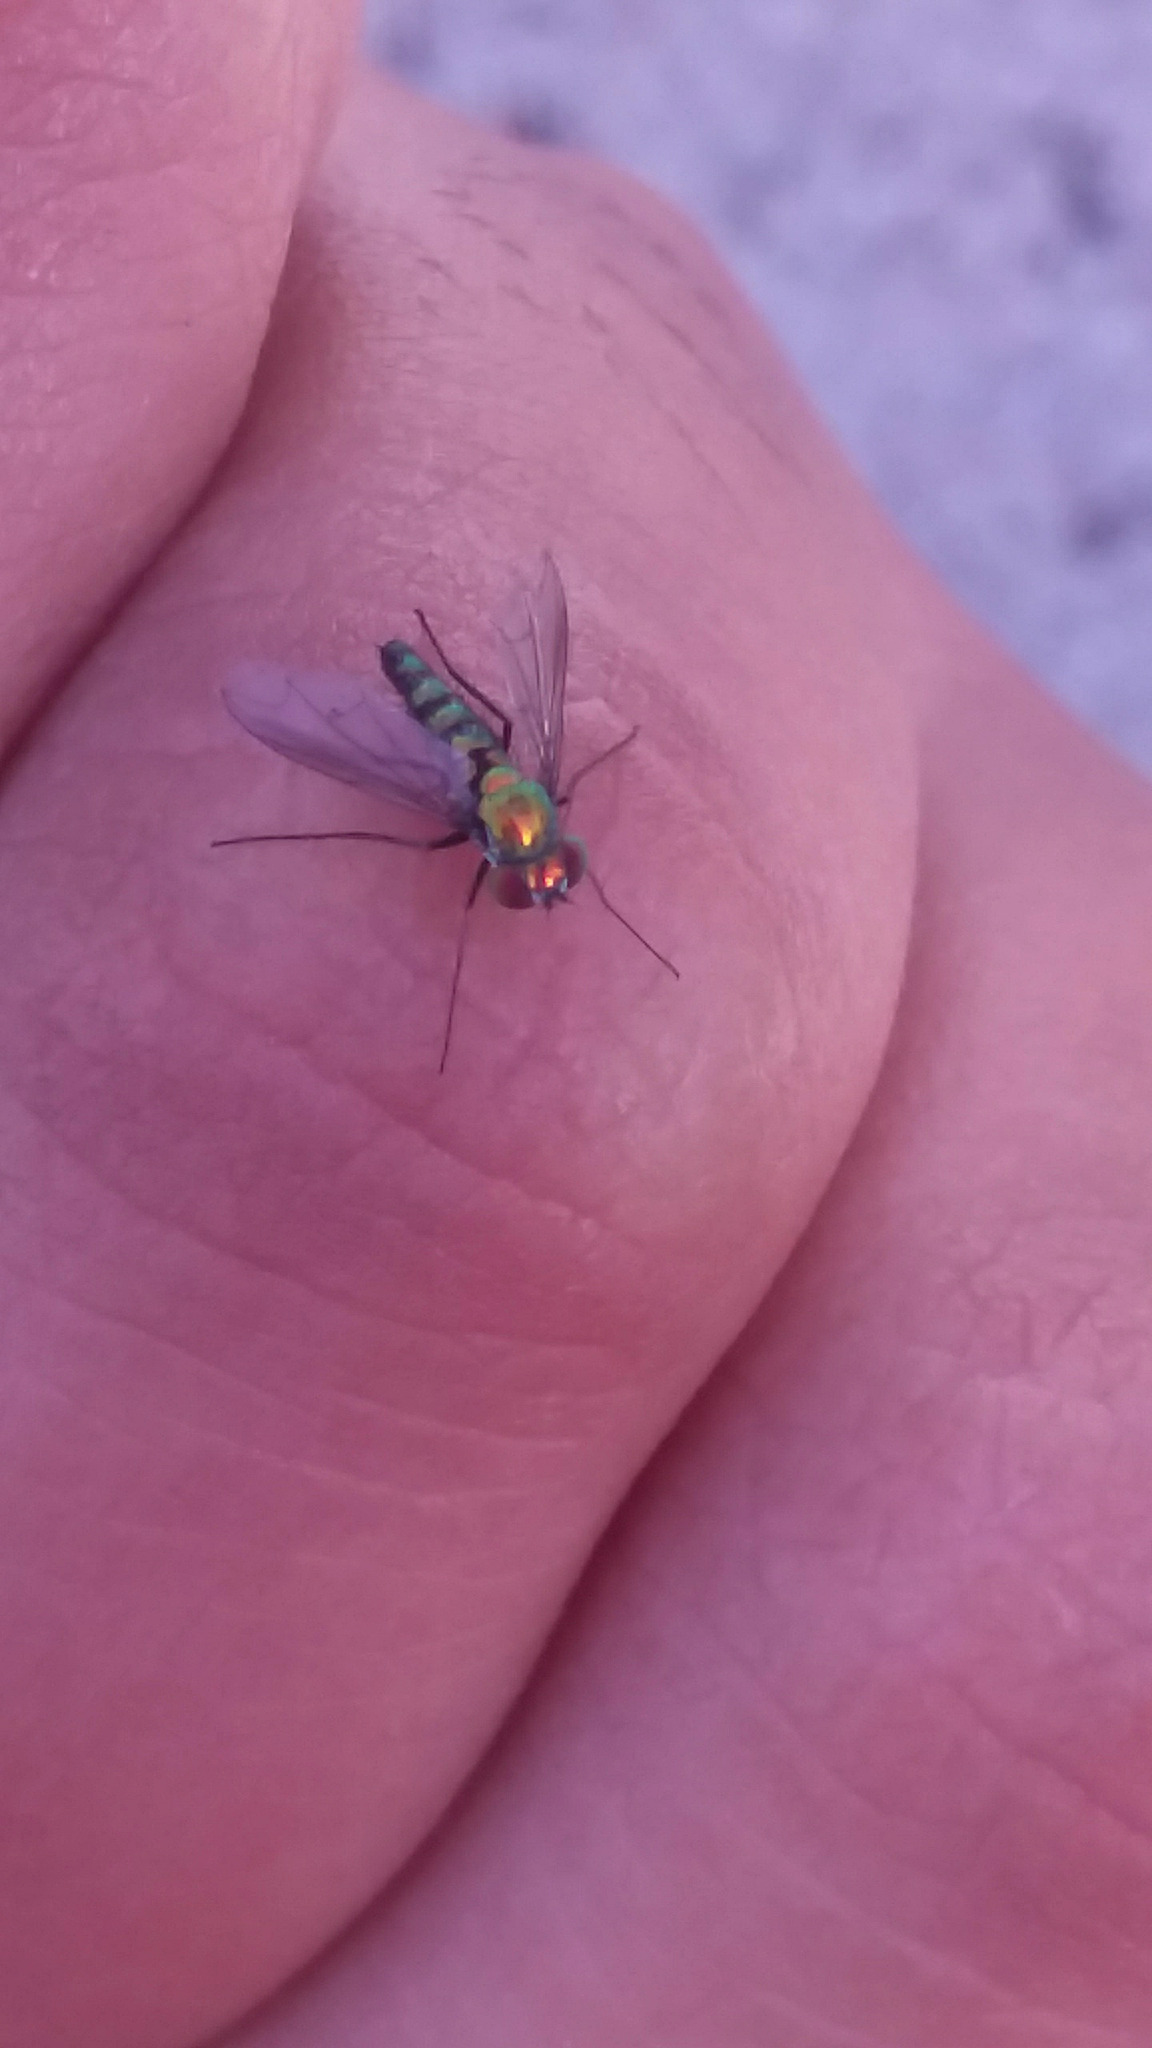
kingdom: Animalia
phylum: Arthropoda
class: Insecta
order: Diptera
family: Dolichopodidae
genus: Condylostylus
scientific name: Condylostylus longicornis
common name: Long-legged fly
